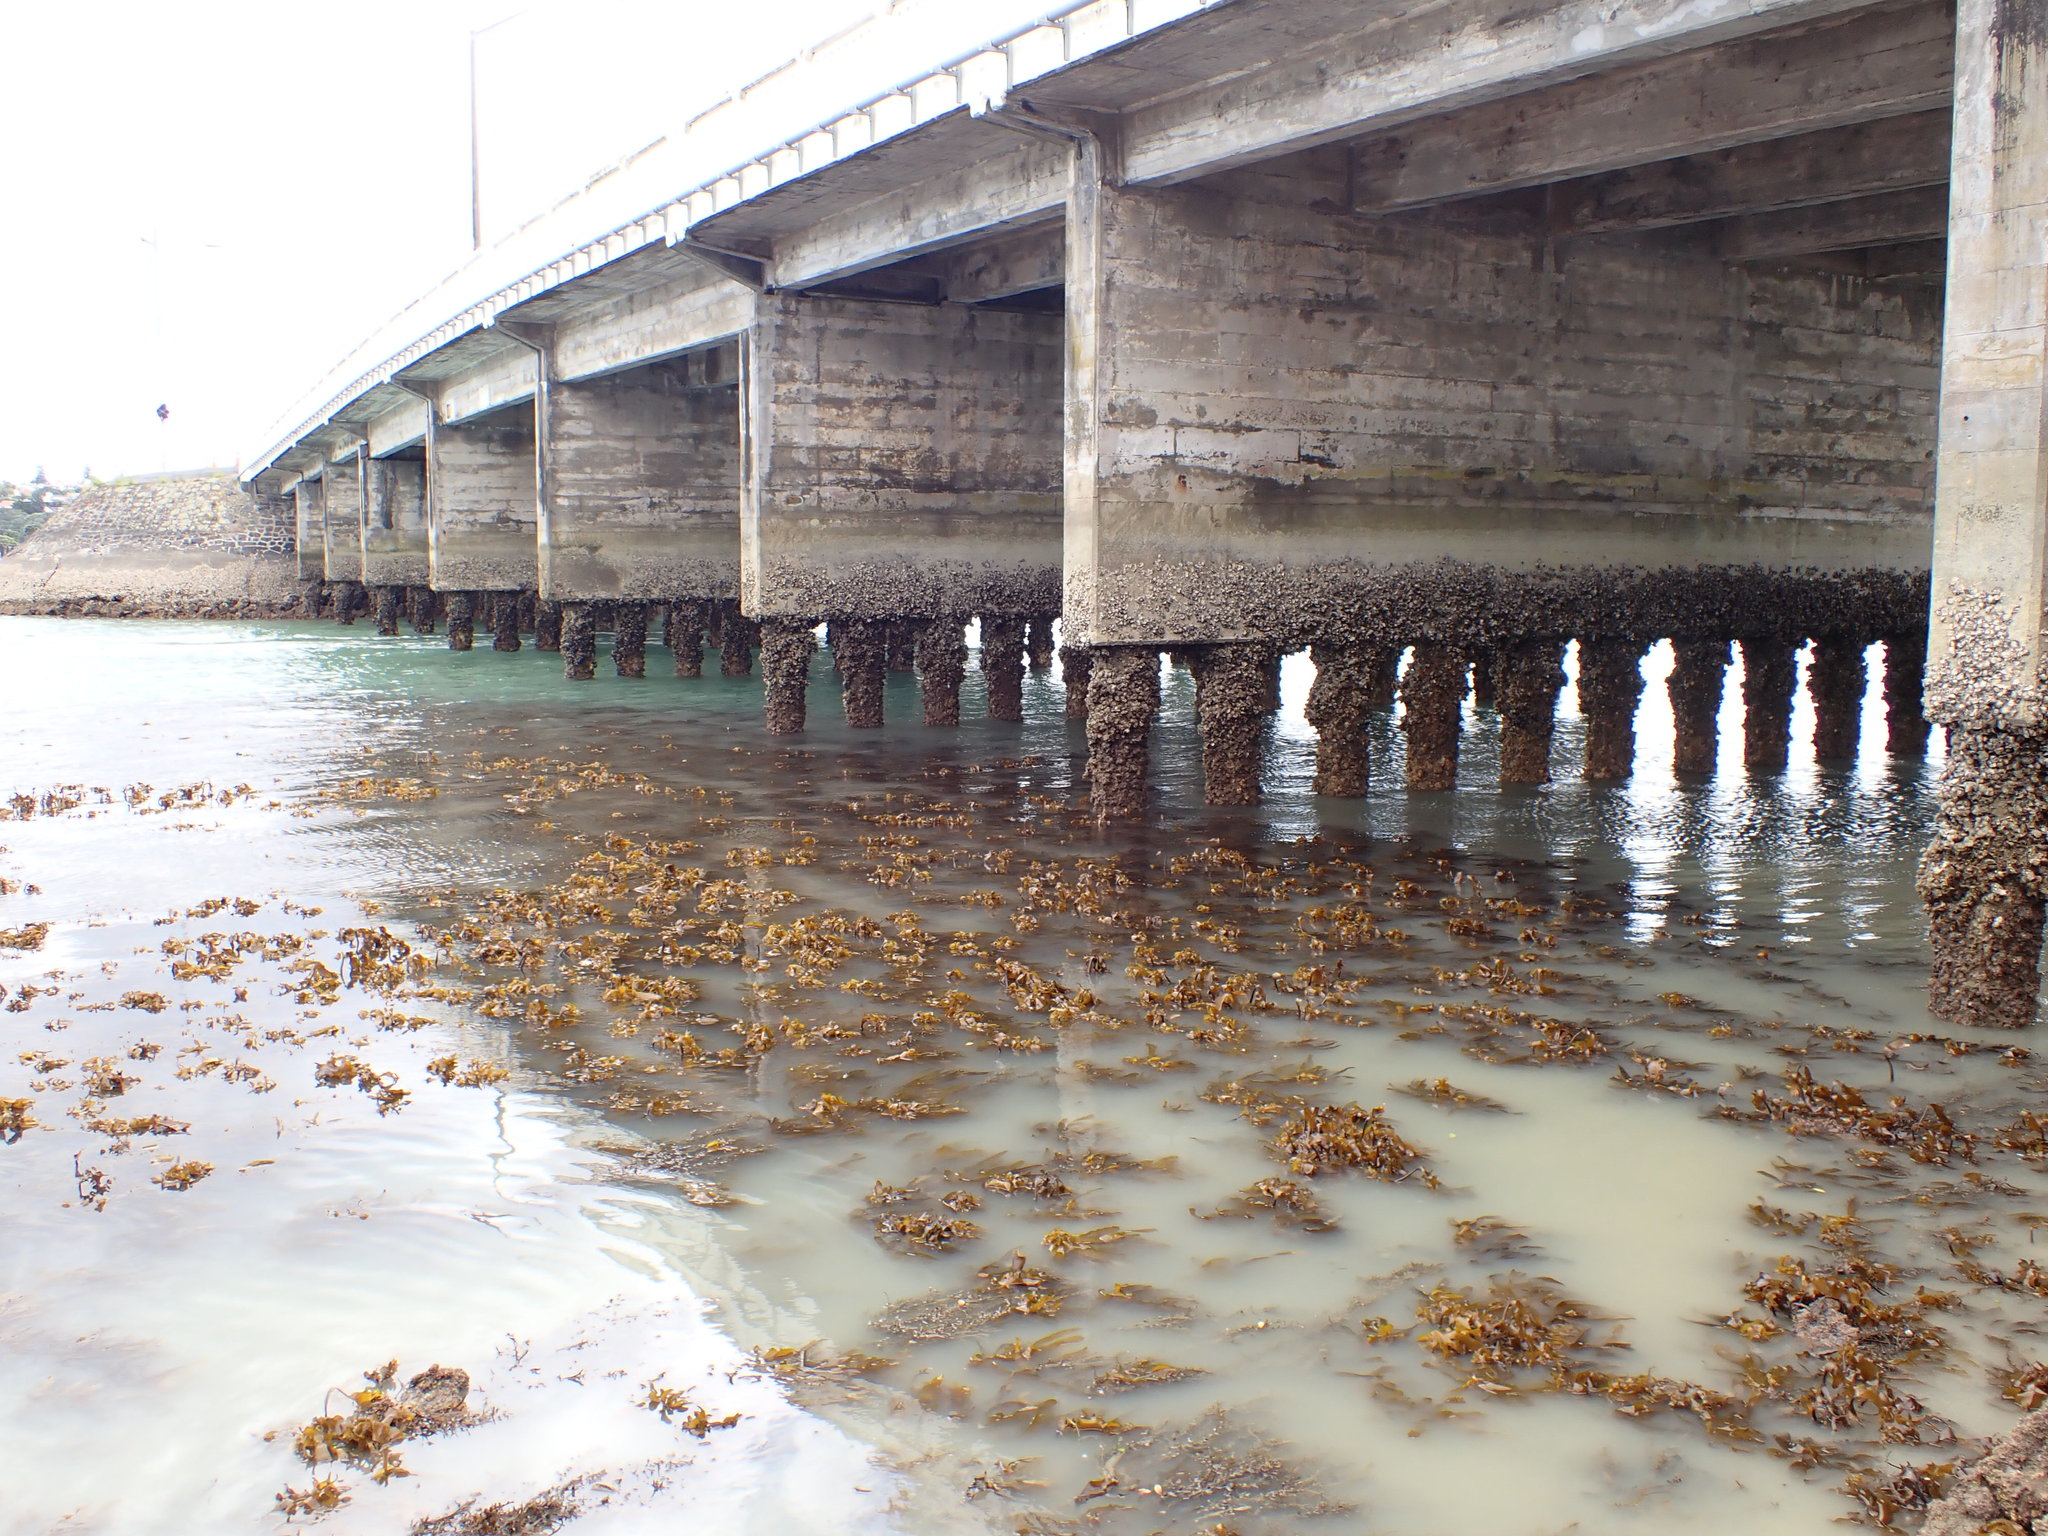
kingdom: Chromista
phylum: Ochrophyta
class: Phaeophyceae
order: Laminariales
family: Lessoniaceae
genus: Ecklonia
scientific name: Ecklonia radiata
